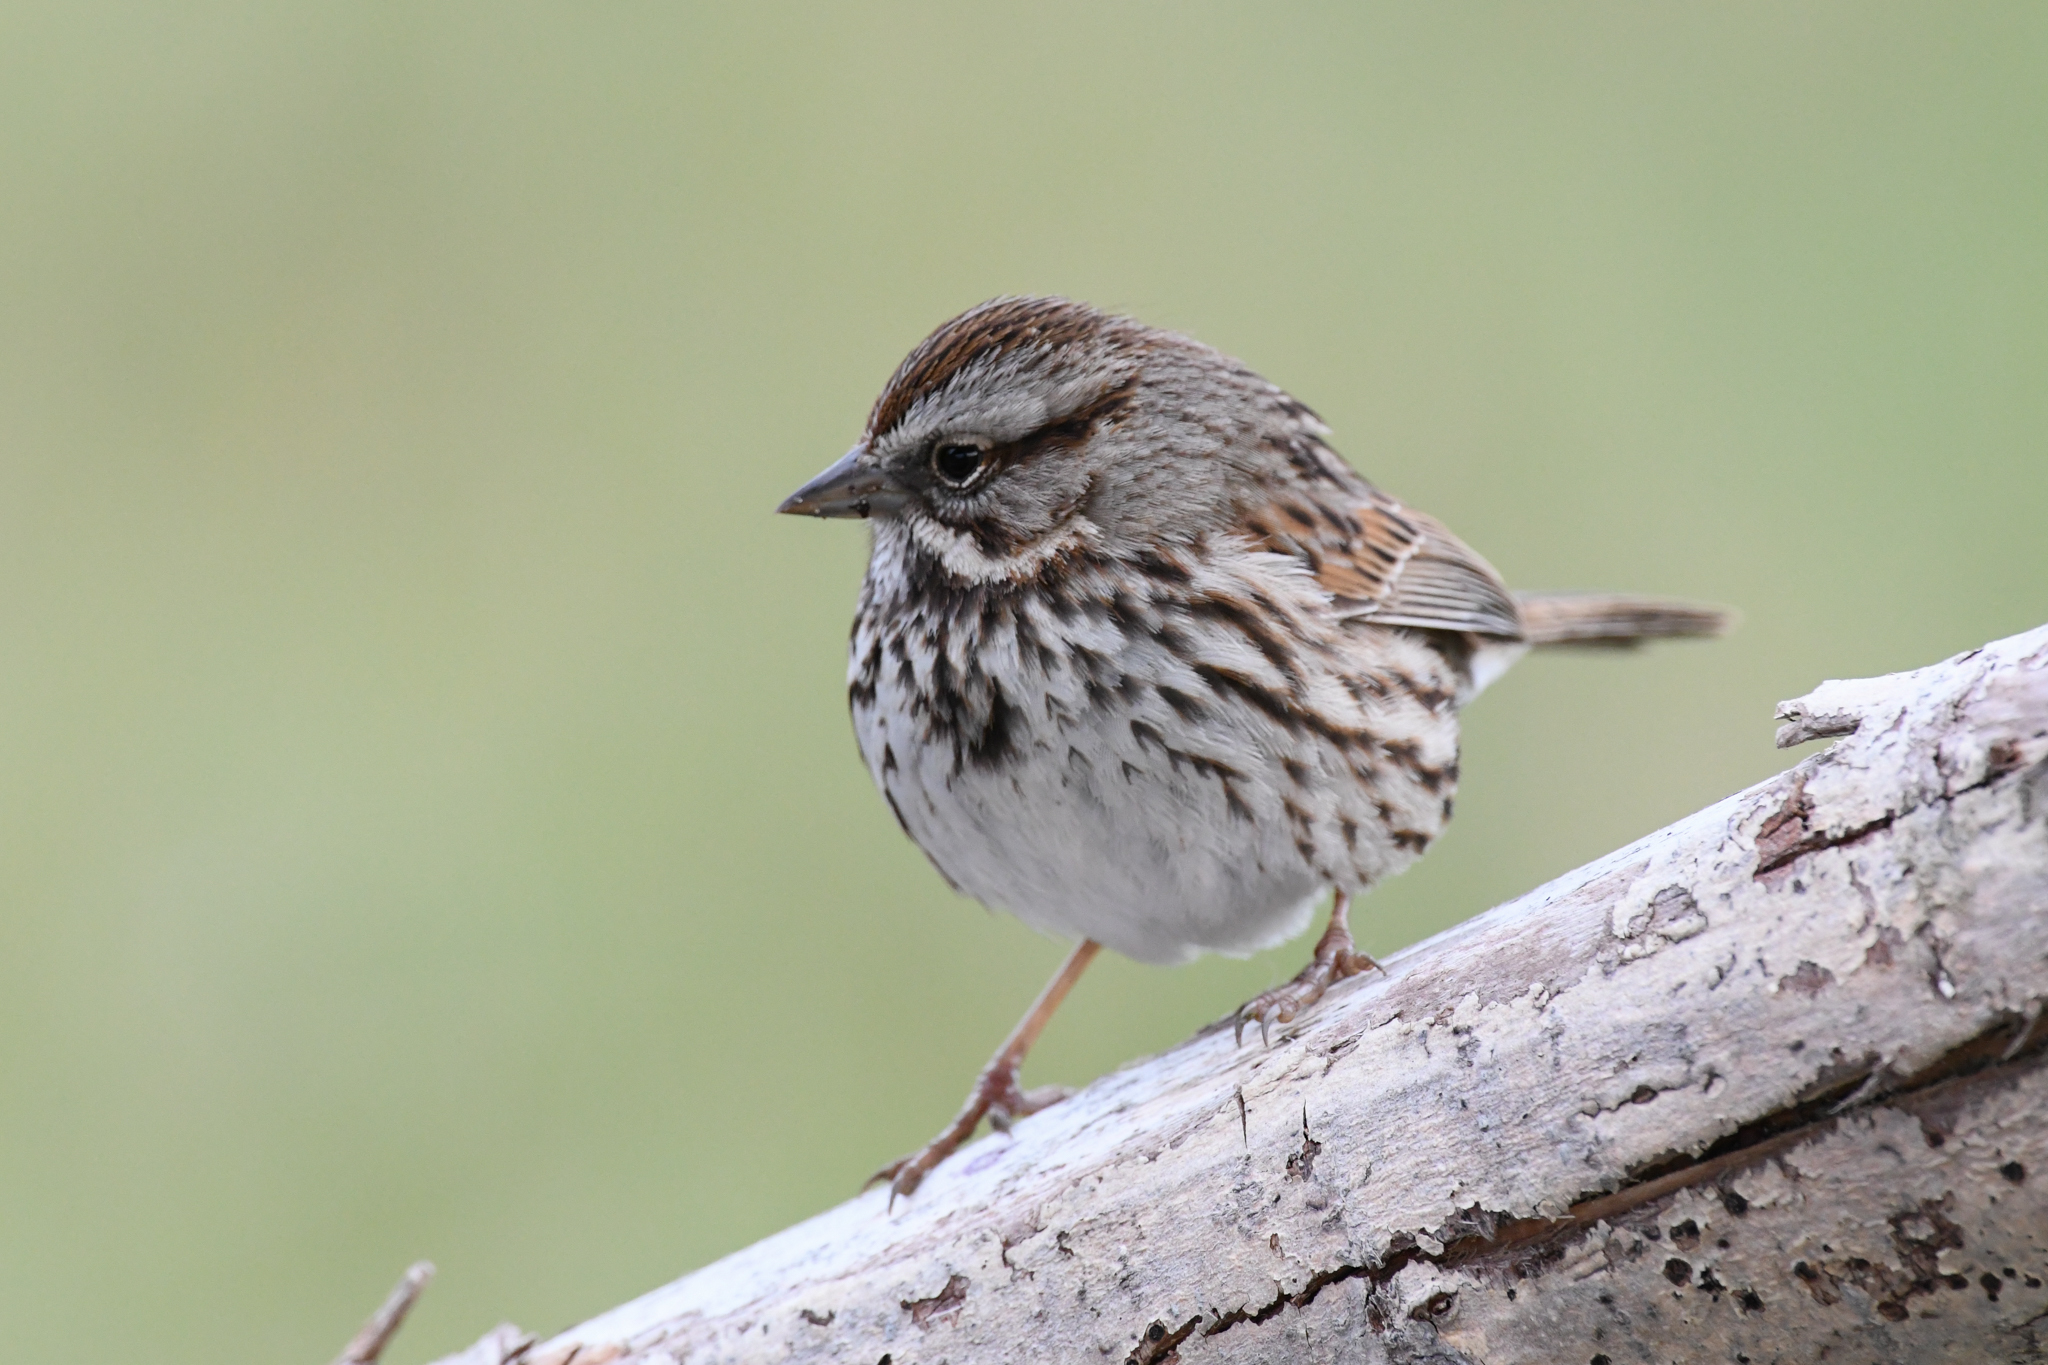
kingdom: Animalia
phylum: Chordata
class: Aves
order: Passeriformes
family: Passerellidae
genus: Melospiza
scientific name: Melospiza melodia
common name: Song sparrow
